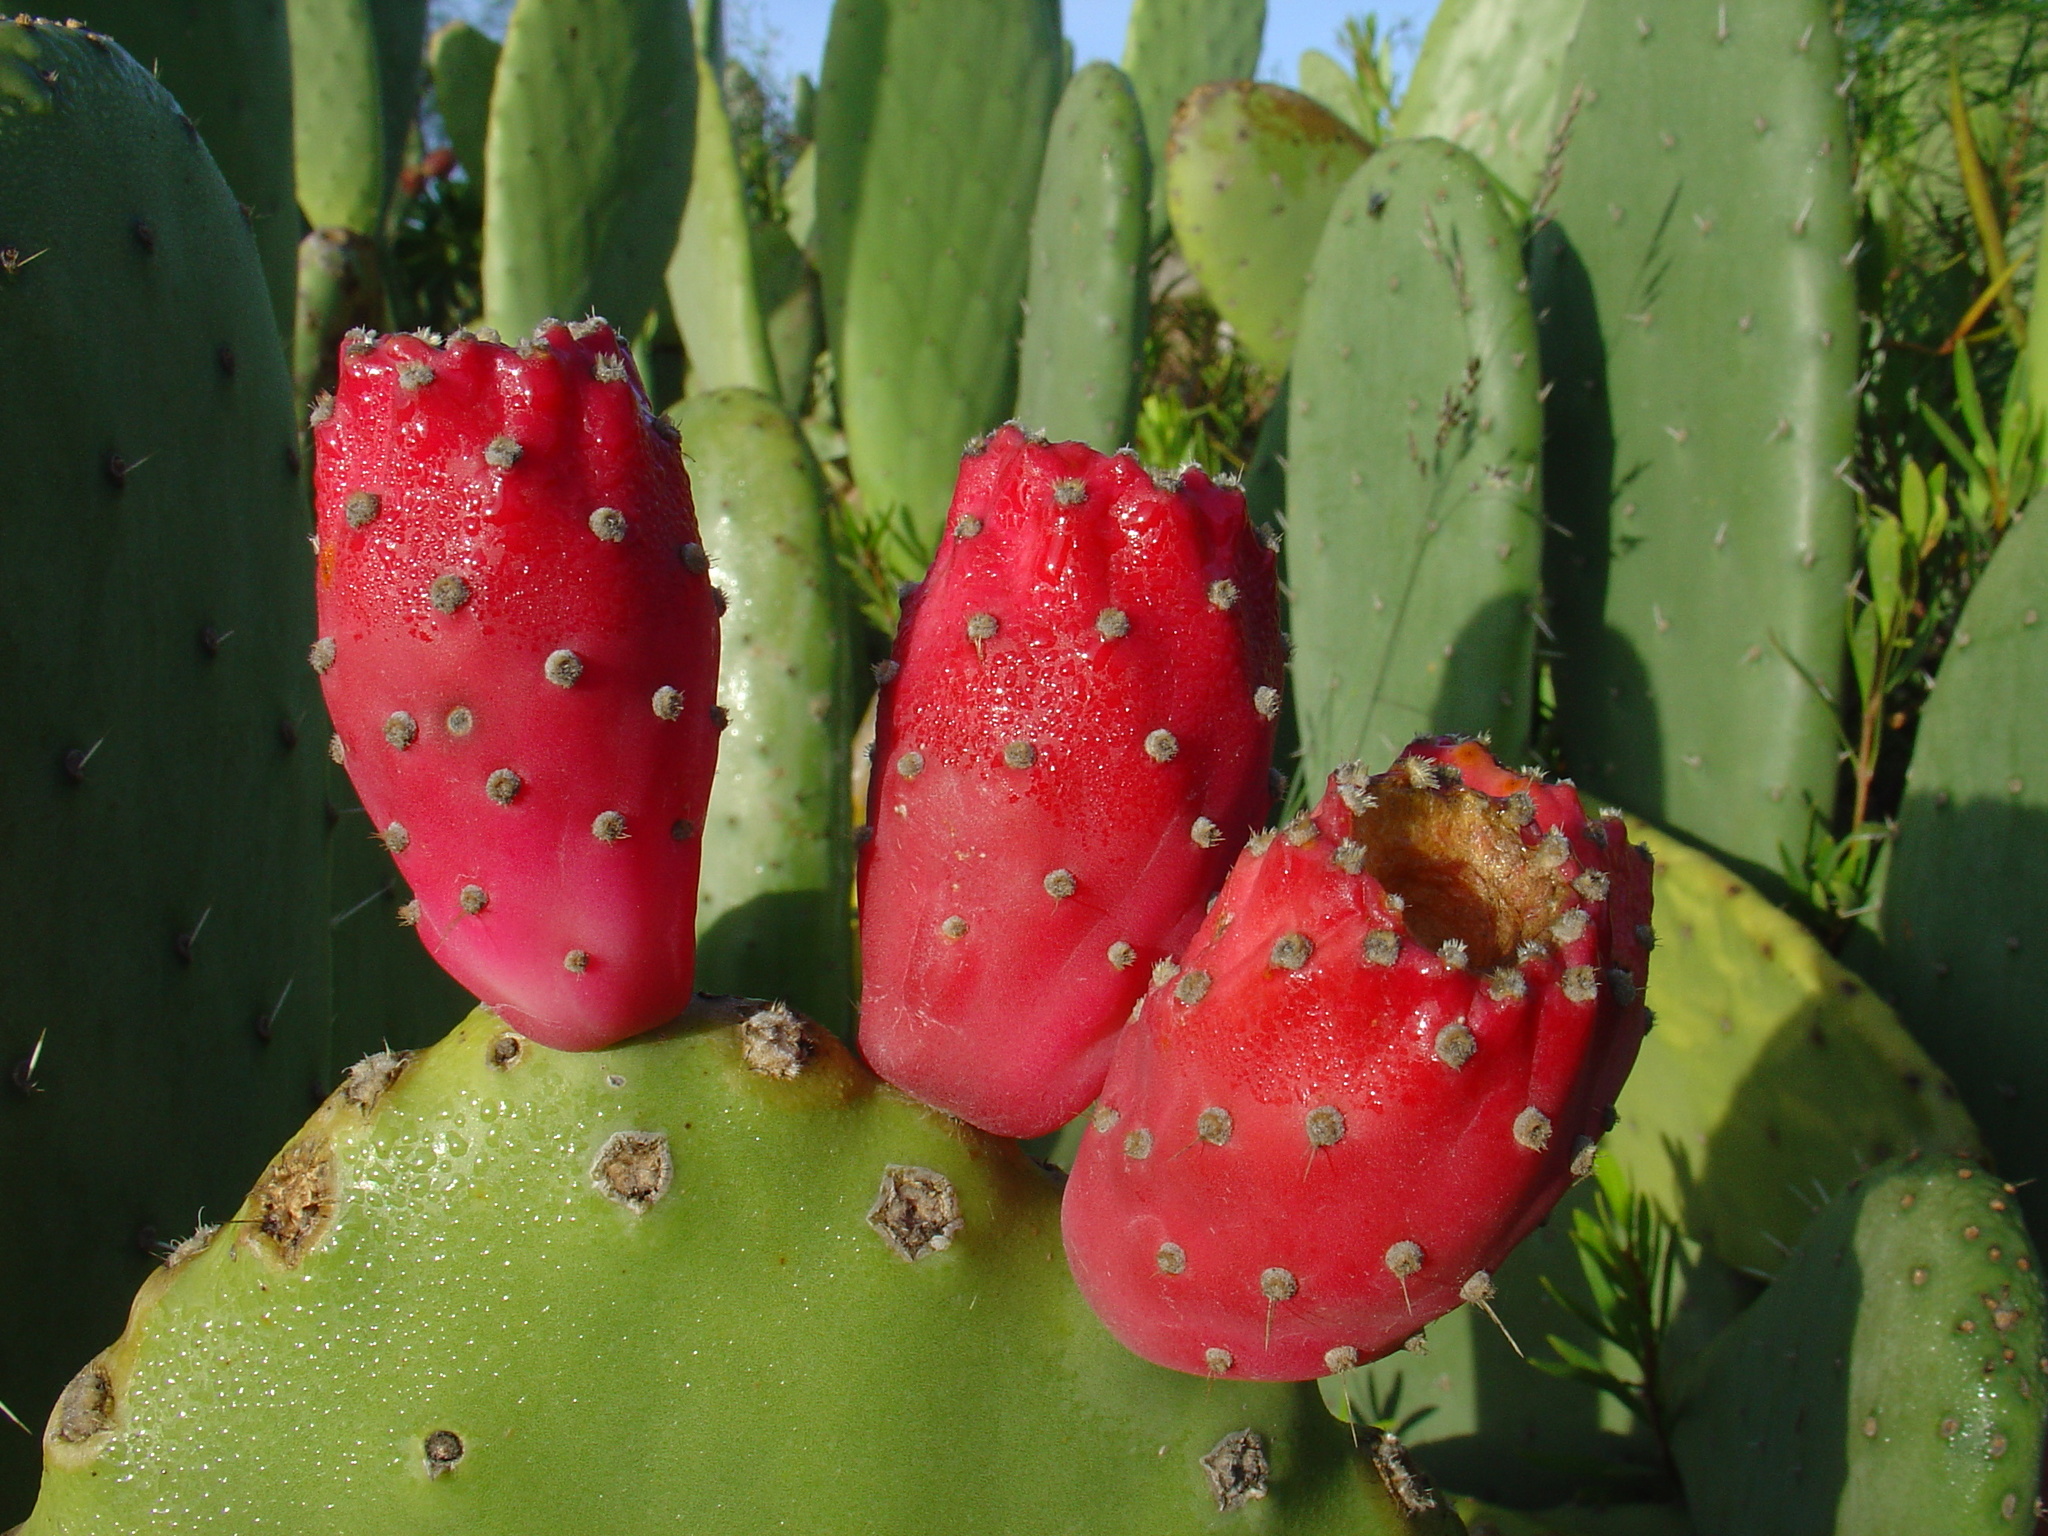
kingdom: Plantae
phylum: Tracheophyta
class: Magnoliopsida
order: Caryophyllales
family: Cactaceae
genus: Opuntia
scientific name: Opuntia ficus-indica
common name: Barbary fig
